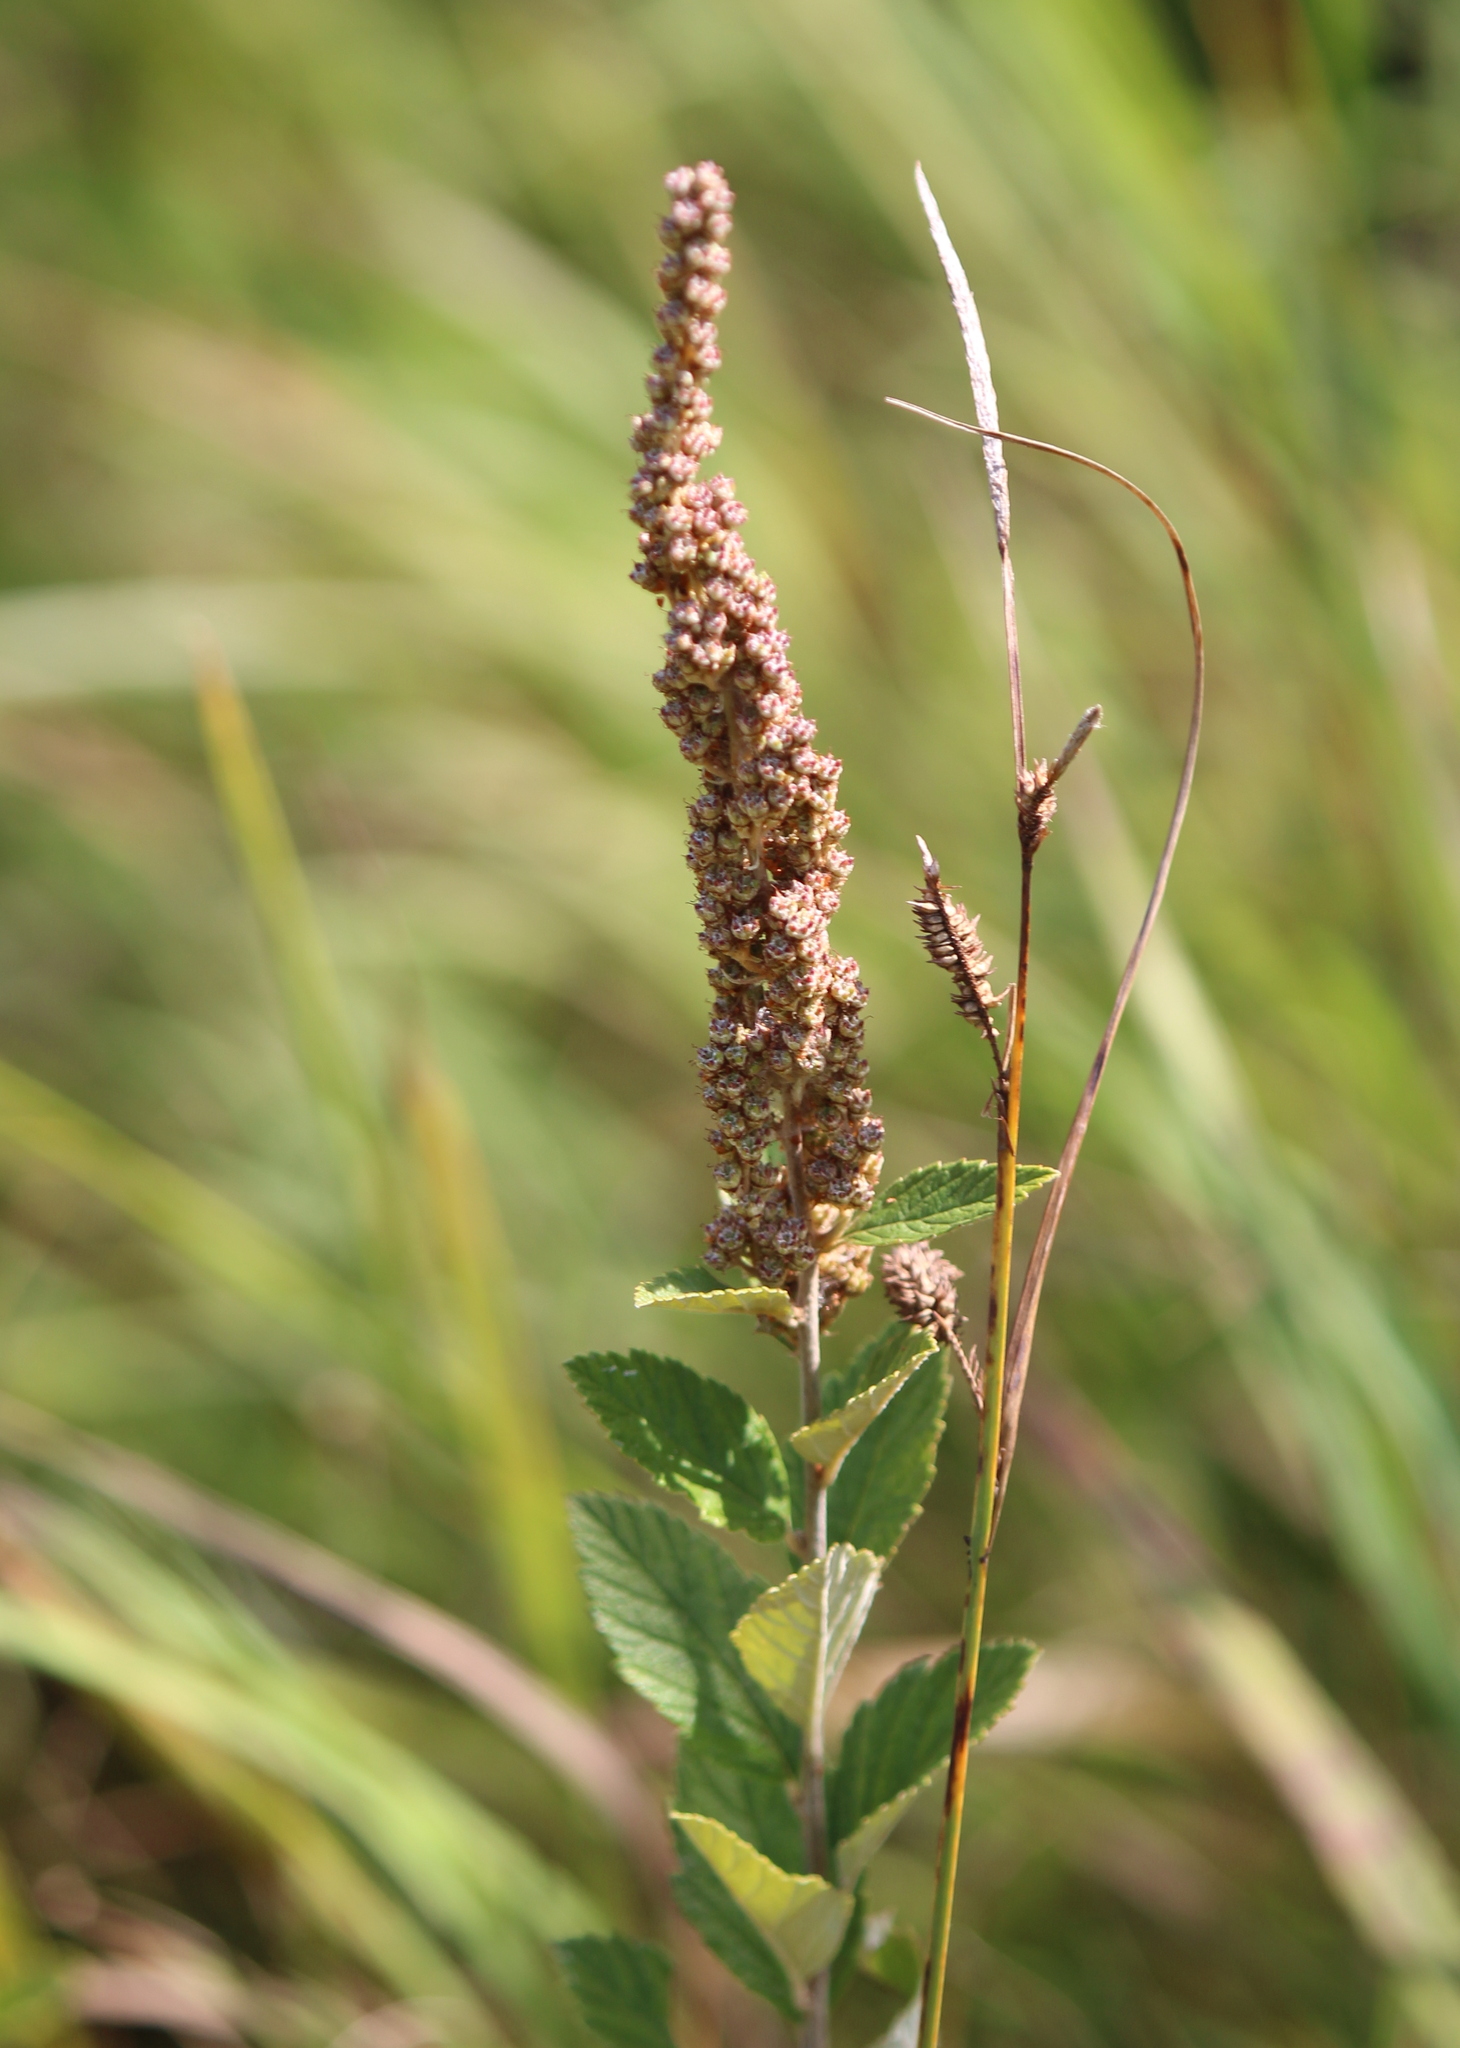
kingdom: Plantae
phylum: Tracheophyta
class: Magnoliopsida
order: Rosales
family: Rosaceae
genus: Spiraea
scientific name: Spiraea tomentosa
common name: Hardhack
